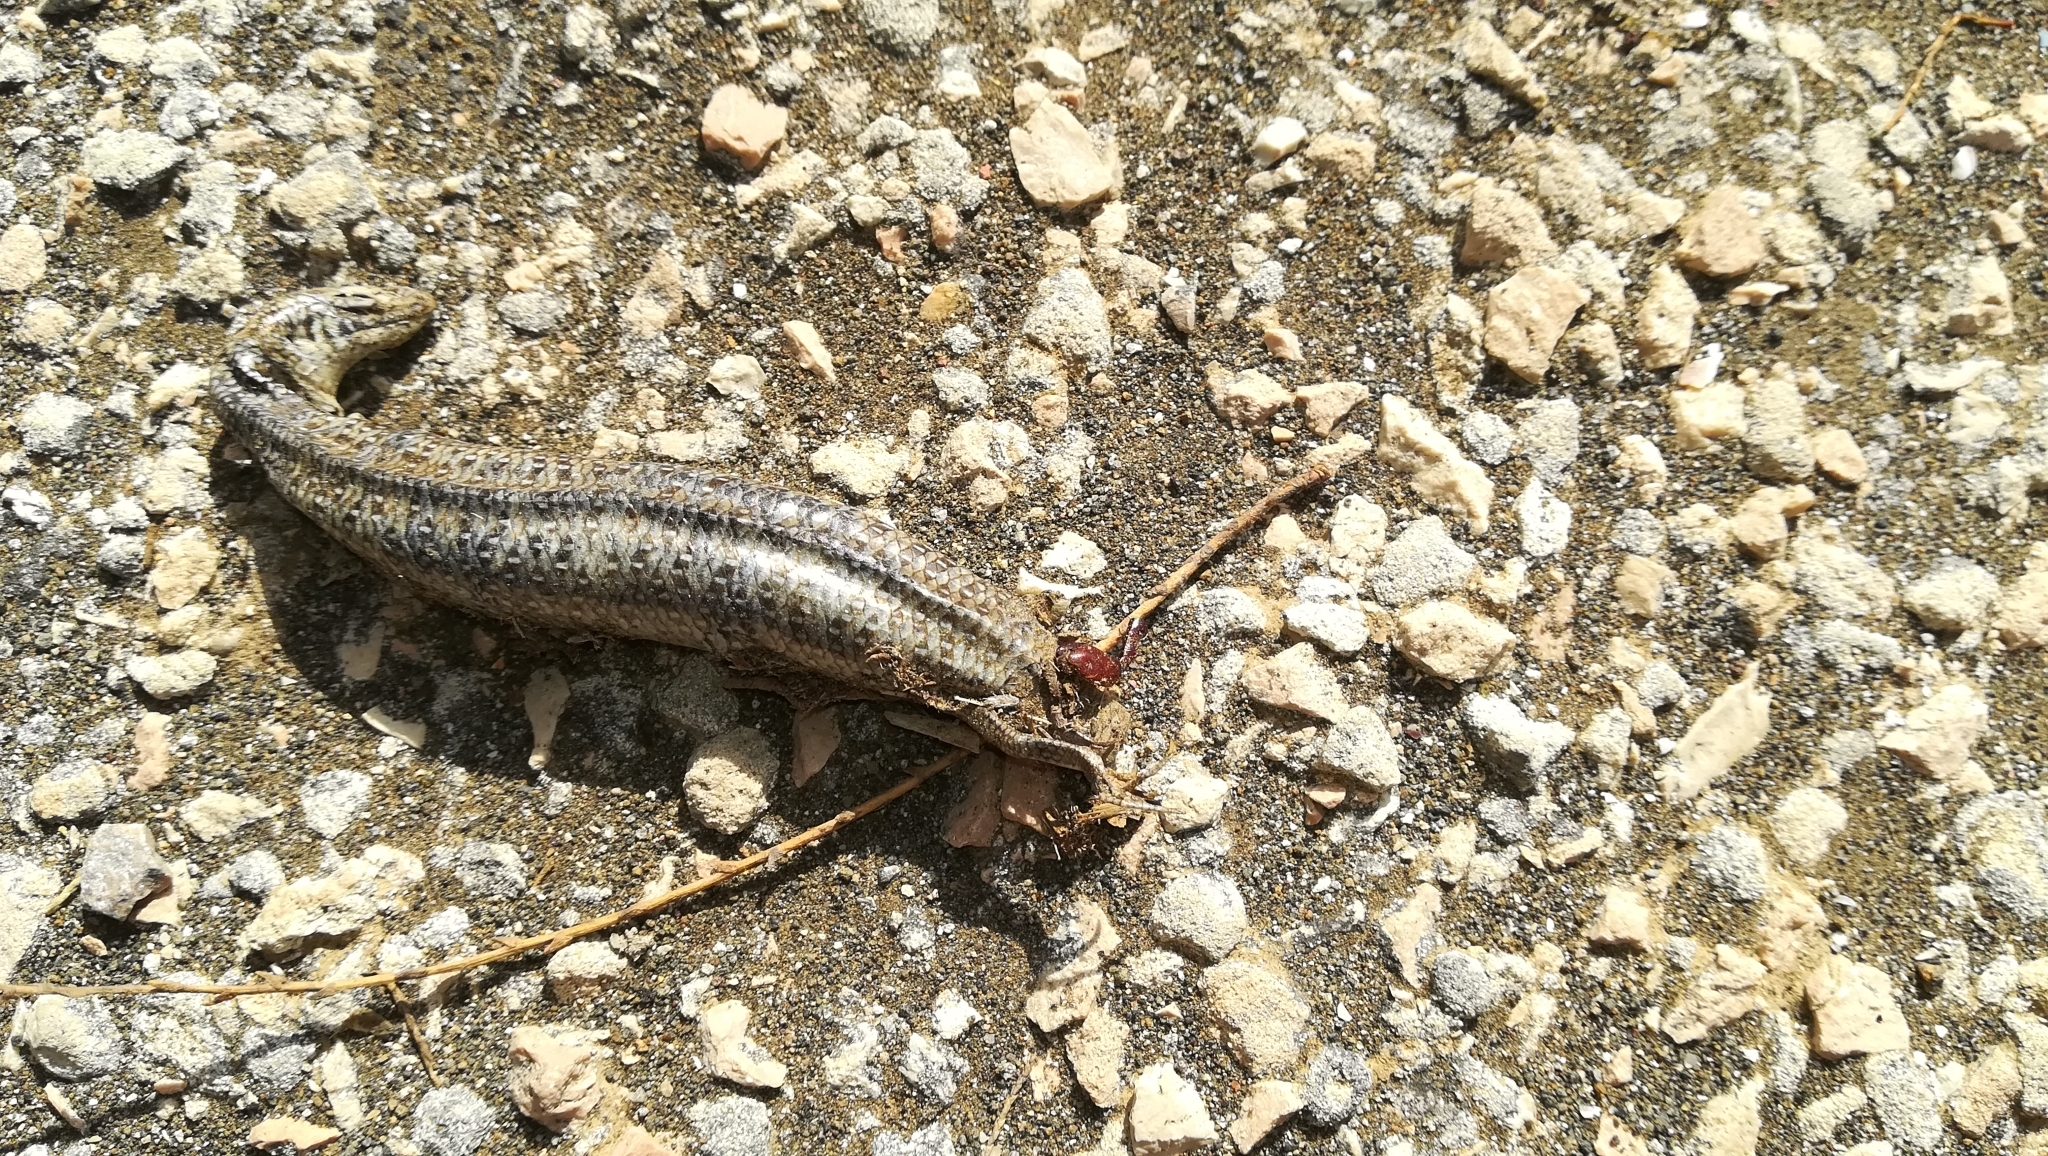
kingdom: Animalia
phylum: Chordata
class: Squamata
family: Scincidae
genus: Chalcides
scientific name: Chalcides ocellatus
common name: Ocellated skink
